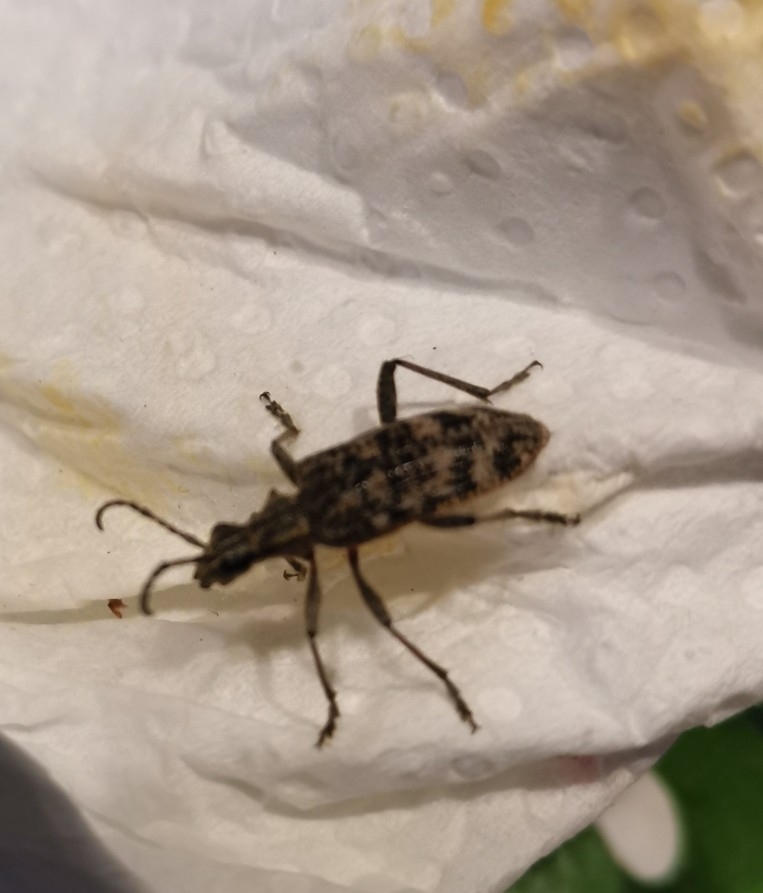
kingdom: Animalia
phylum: Arthropoda
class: Insecta
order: Coleoptera
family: Cerambycidae
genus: Rhagium
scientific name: Rhagium inquisitor
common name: Ribbed pine borer
